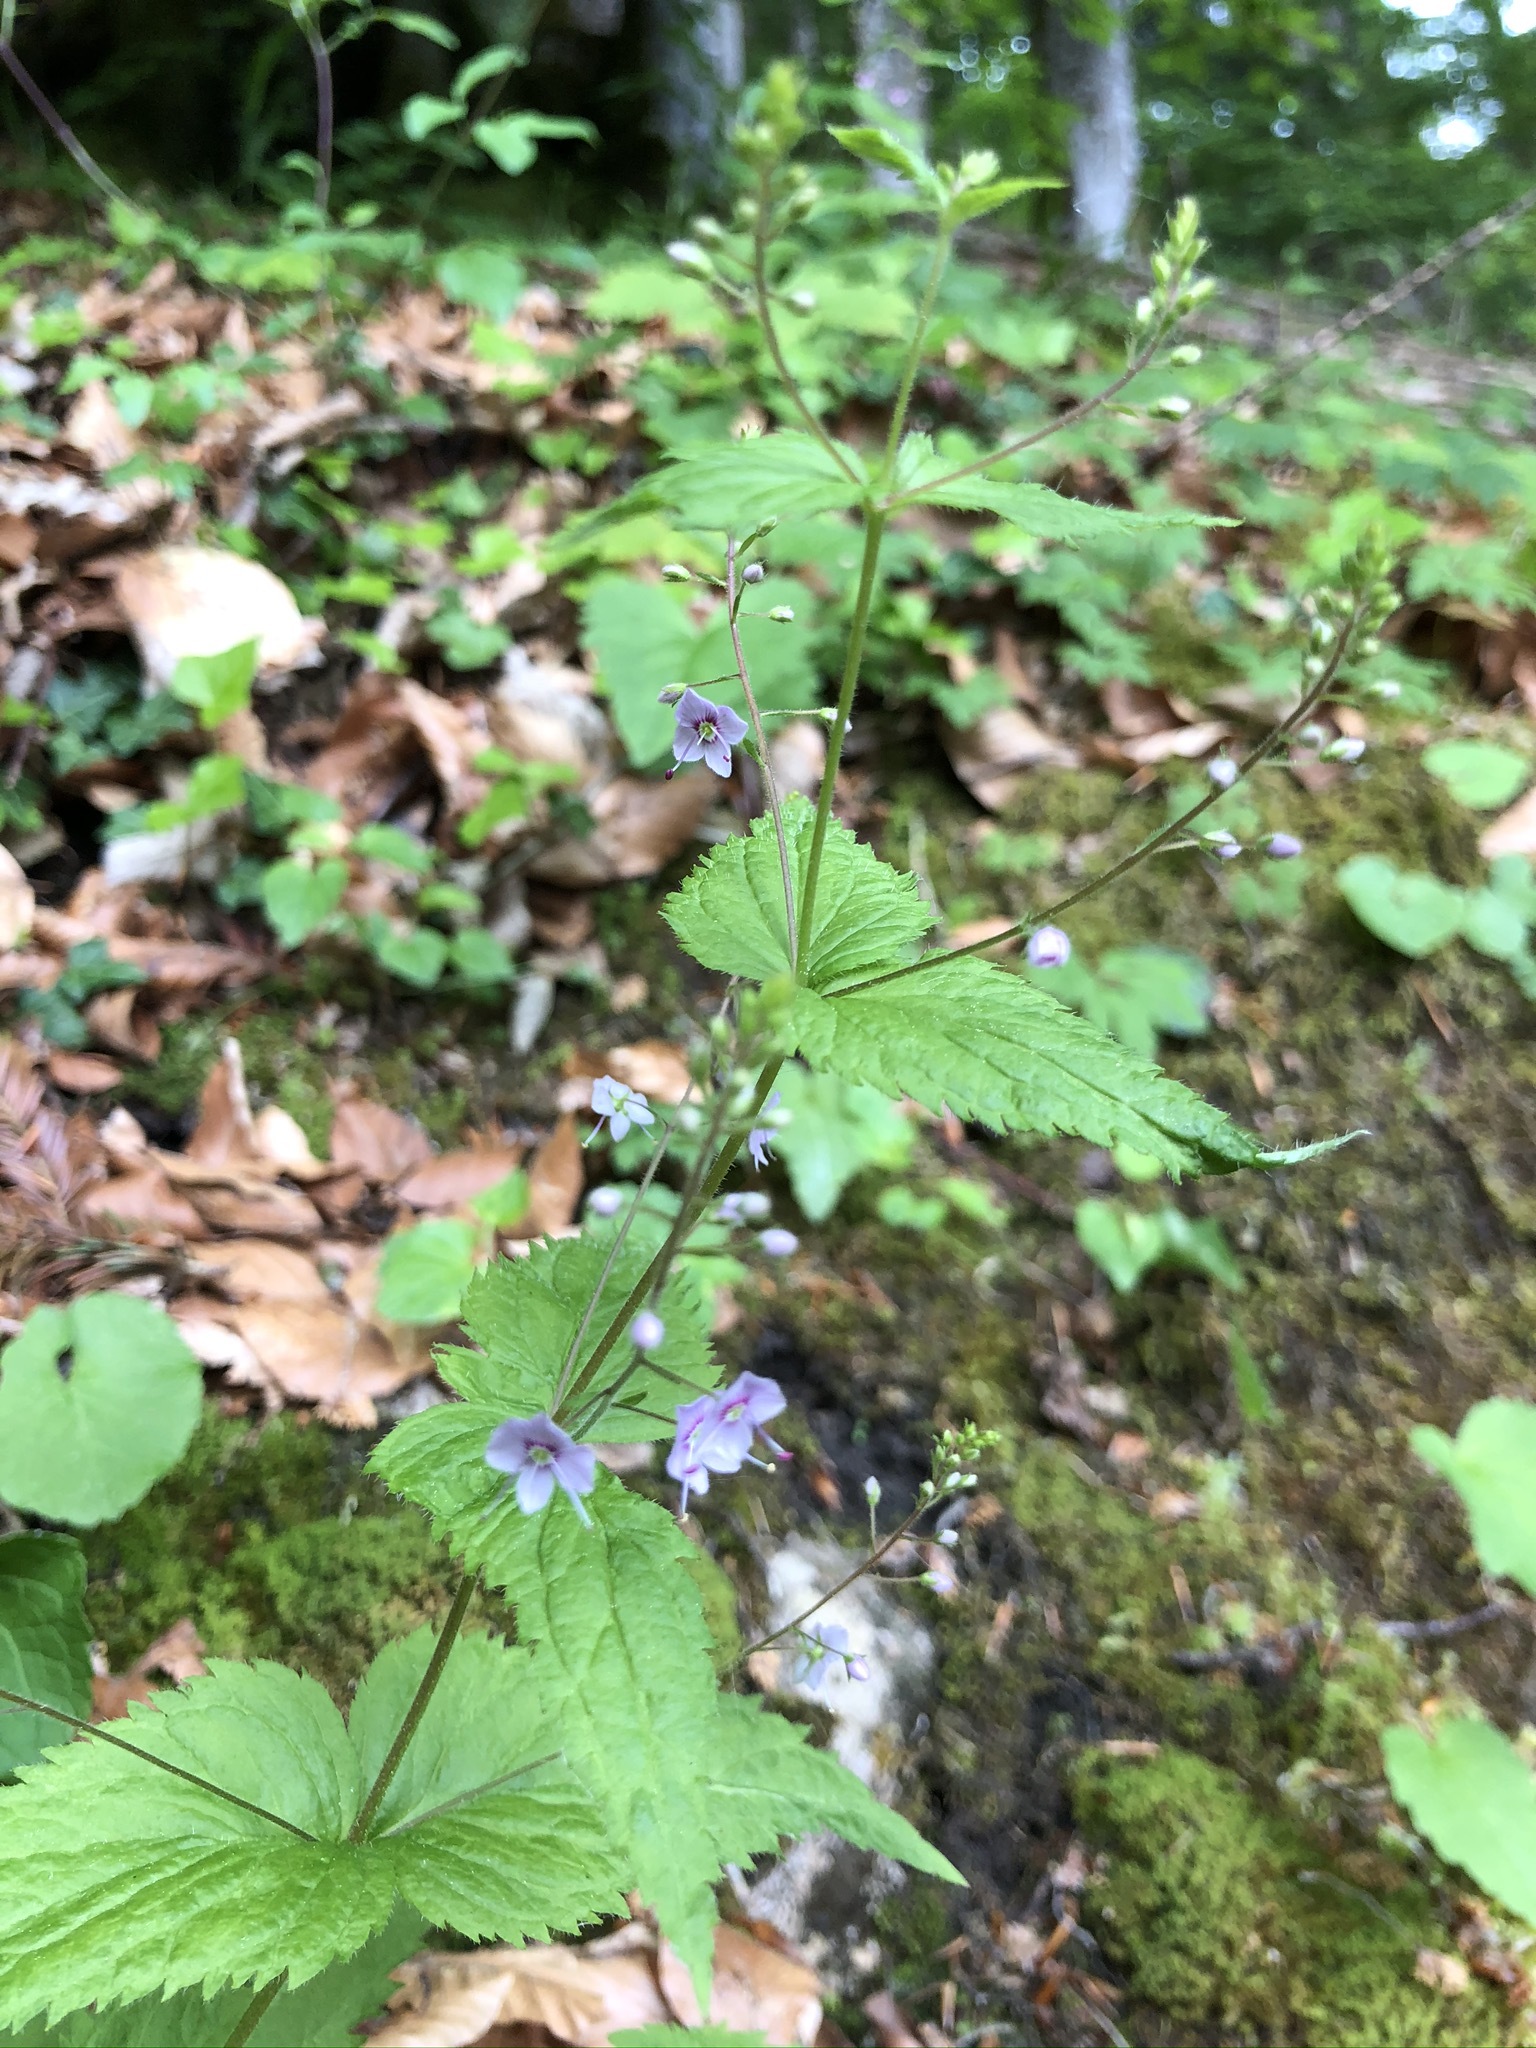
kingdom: Plantae
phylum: Tracheophyta
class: Magnoliopsida
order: Lamiales
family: Plantaginaceae
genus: Veronica
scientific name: Veronica urticifolia
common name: Nettle-leaf speedwell
